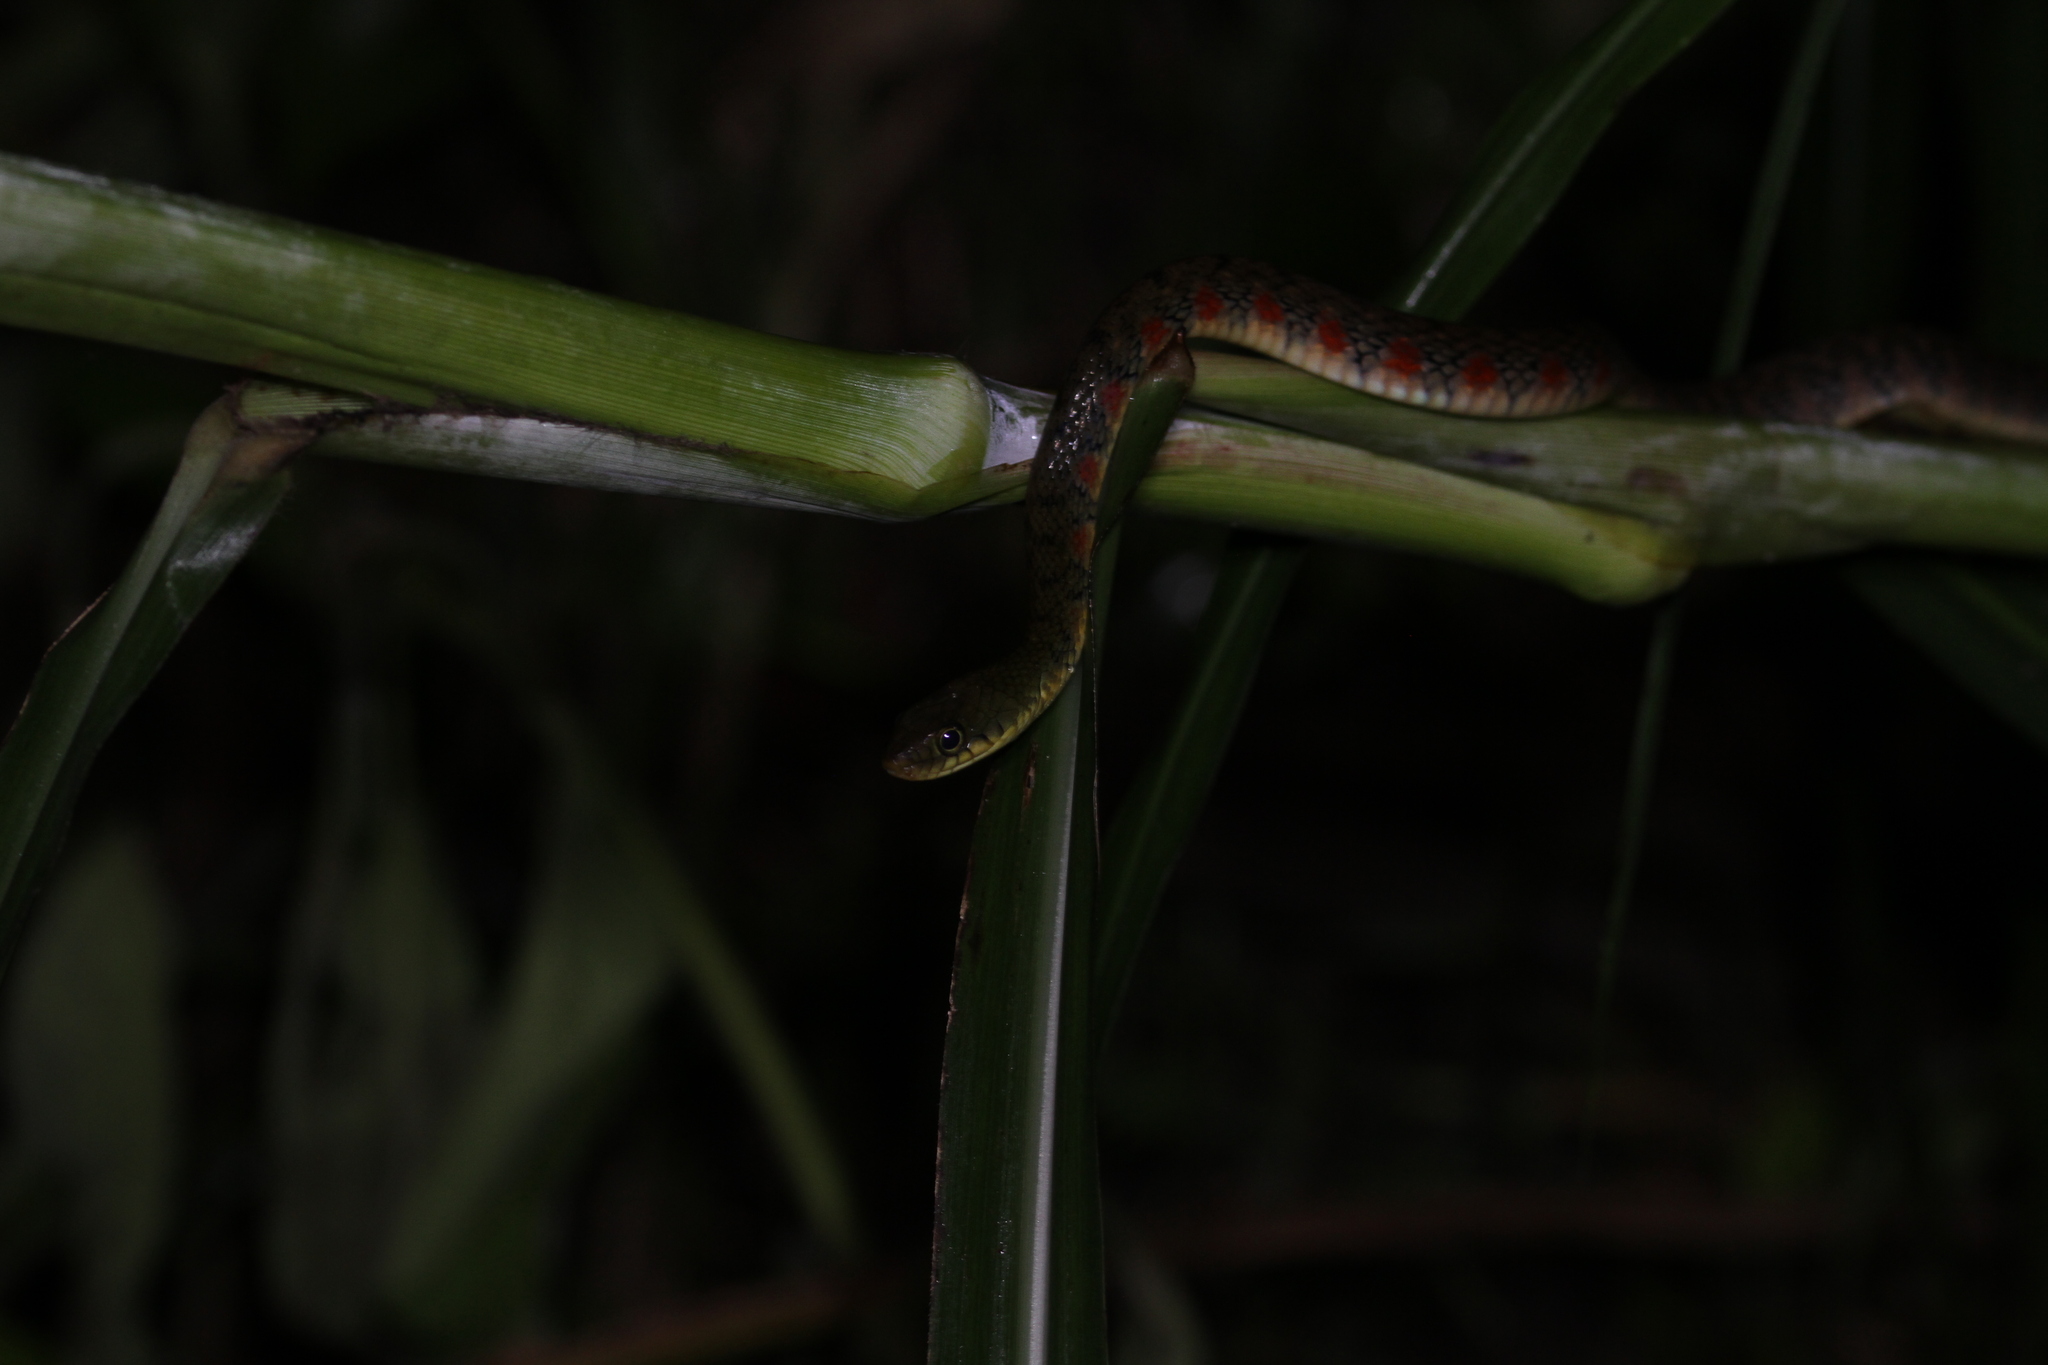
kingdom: Animalia
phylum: Chordata
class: Squamata
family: Colubridae
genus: Xenochrophis
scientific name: Xenochrophis trianguligerus
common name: Triangle keelback
